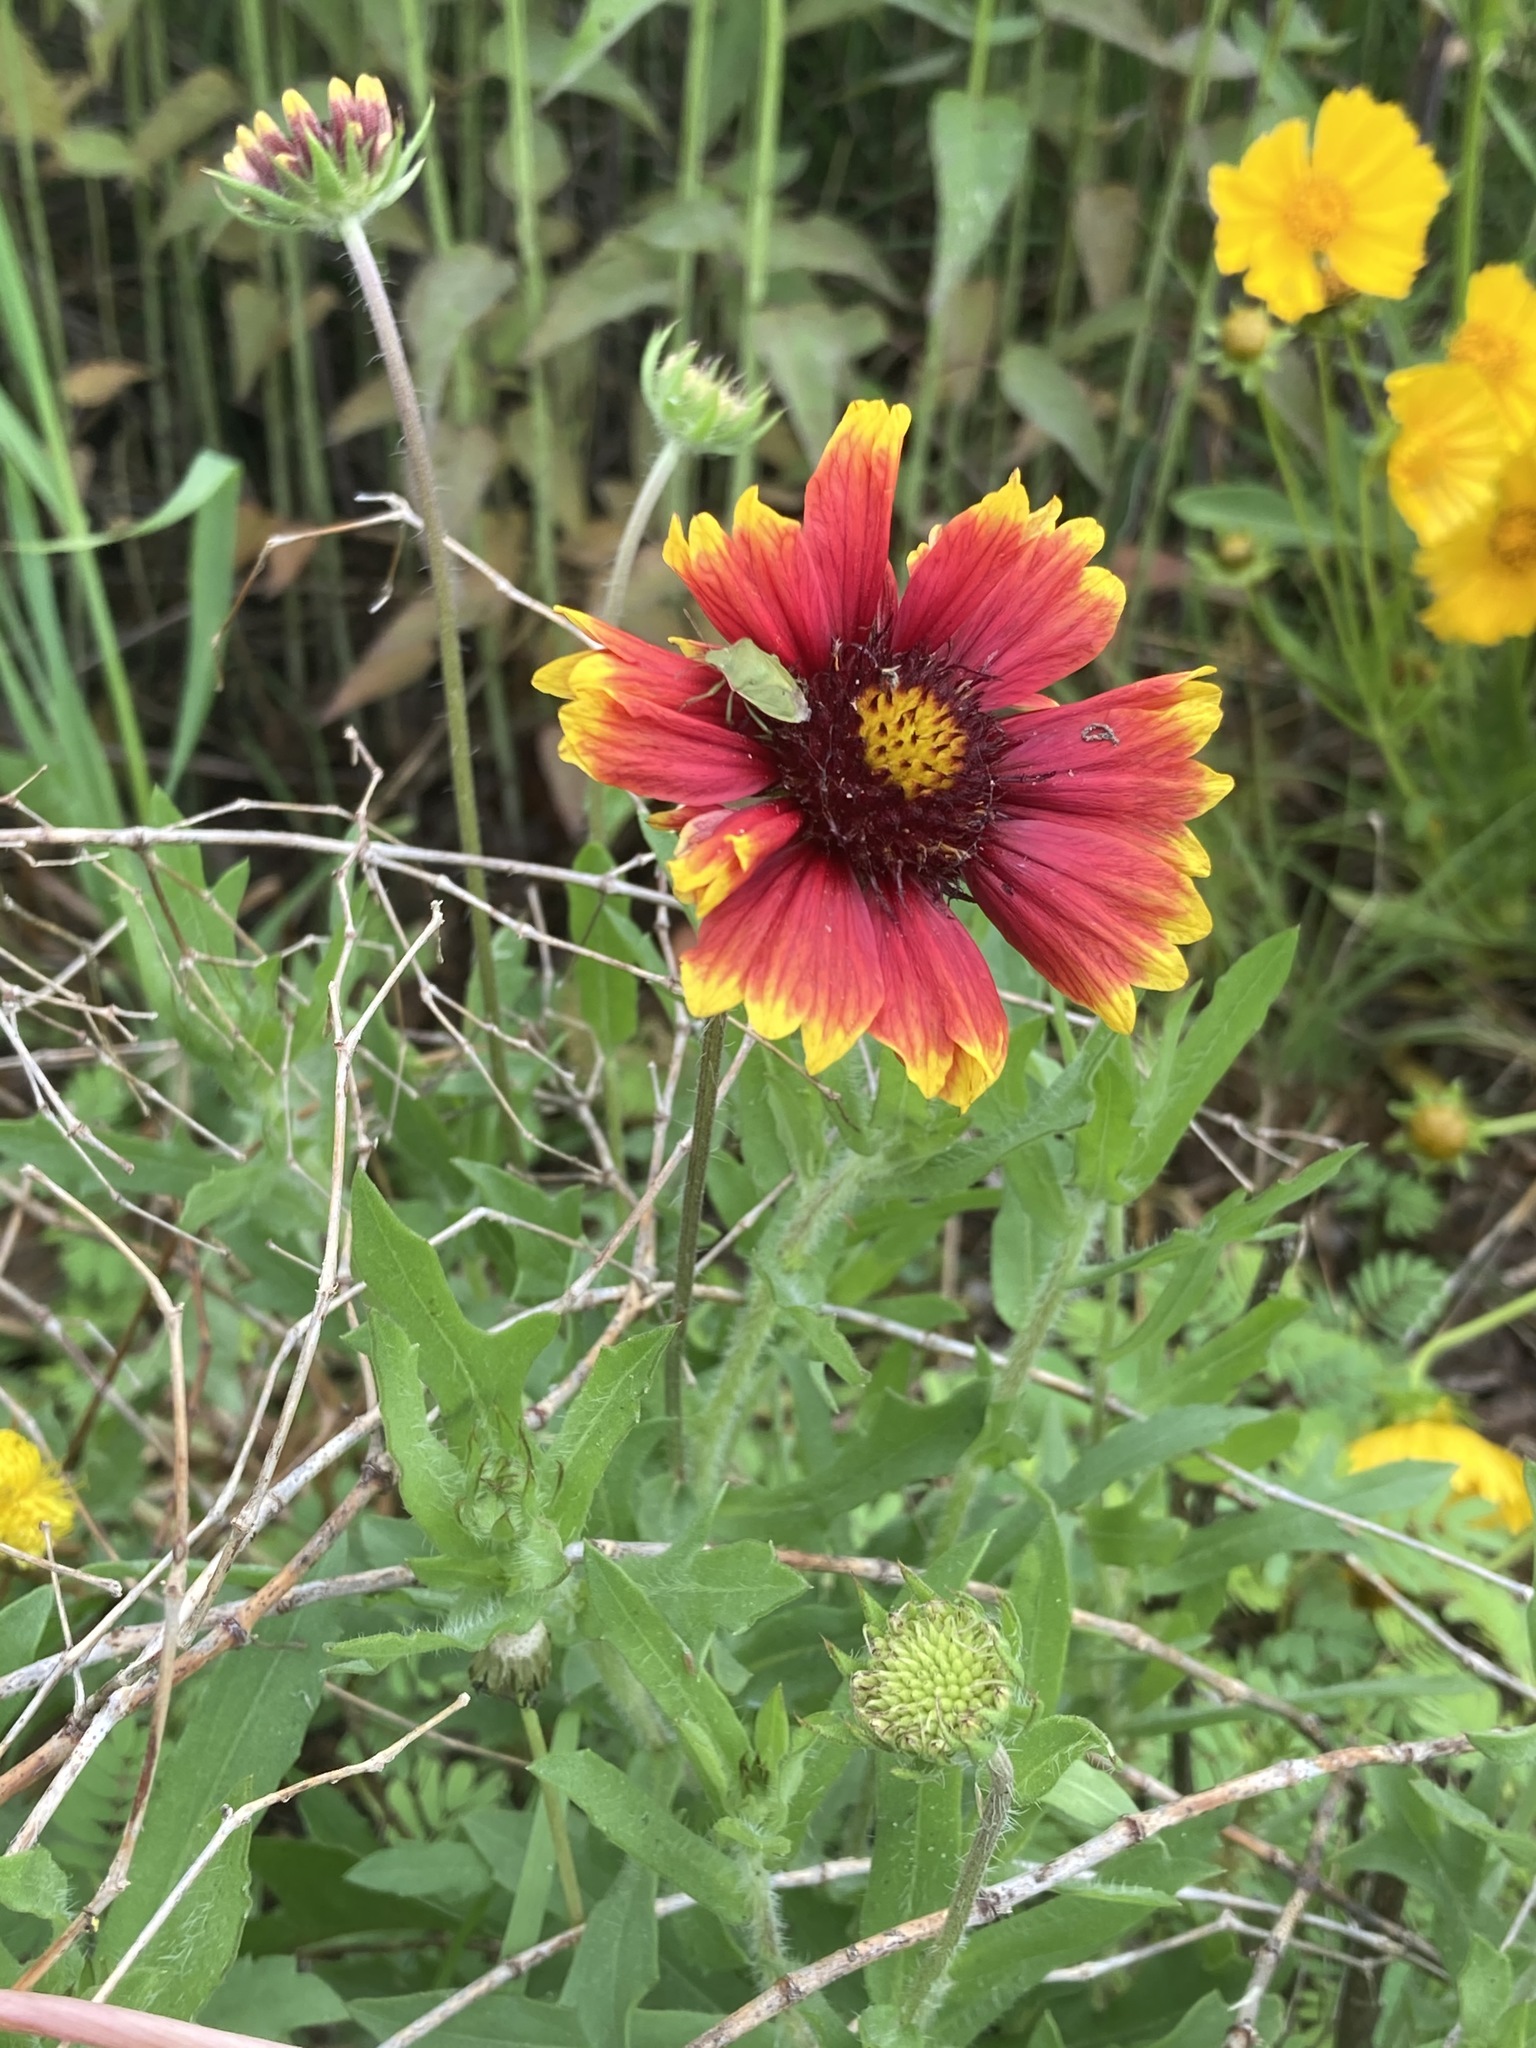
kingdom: Plantae
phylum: Tracheophyta
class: Magnoliopsida
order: Asterales
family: Asteraceae
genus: Gaillardia
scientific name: Gaillardia pulchella
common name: Firewheel
